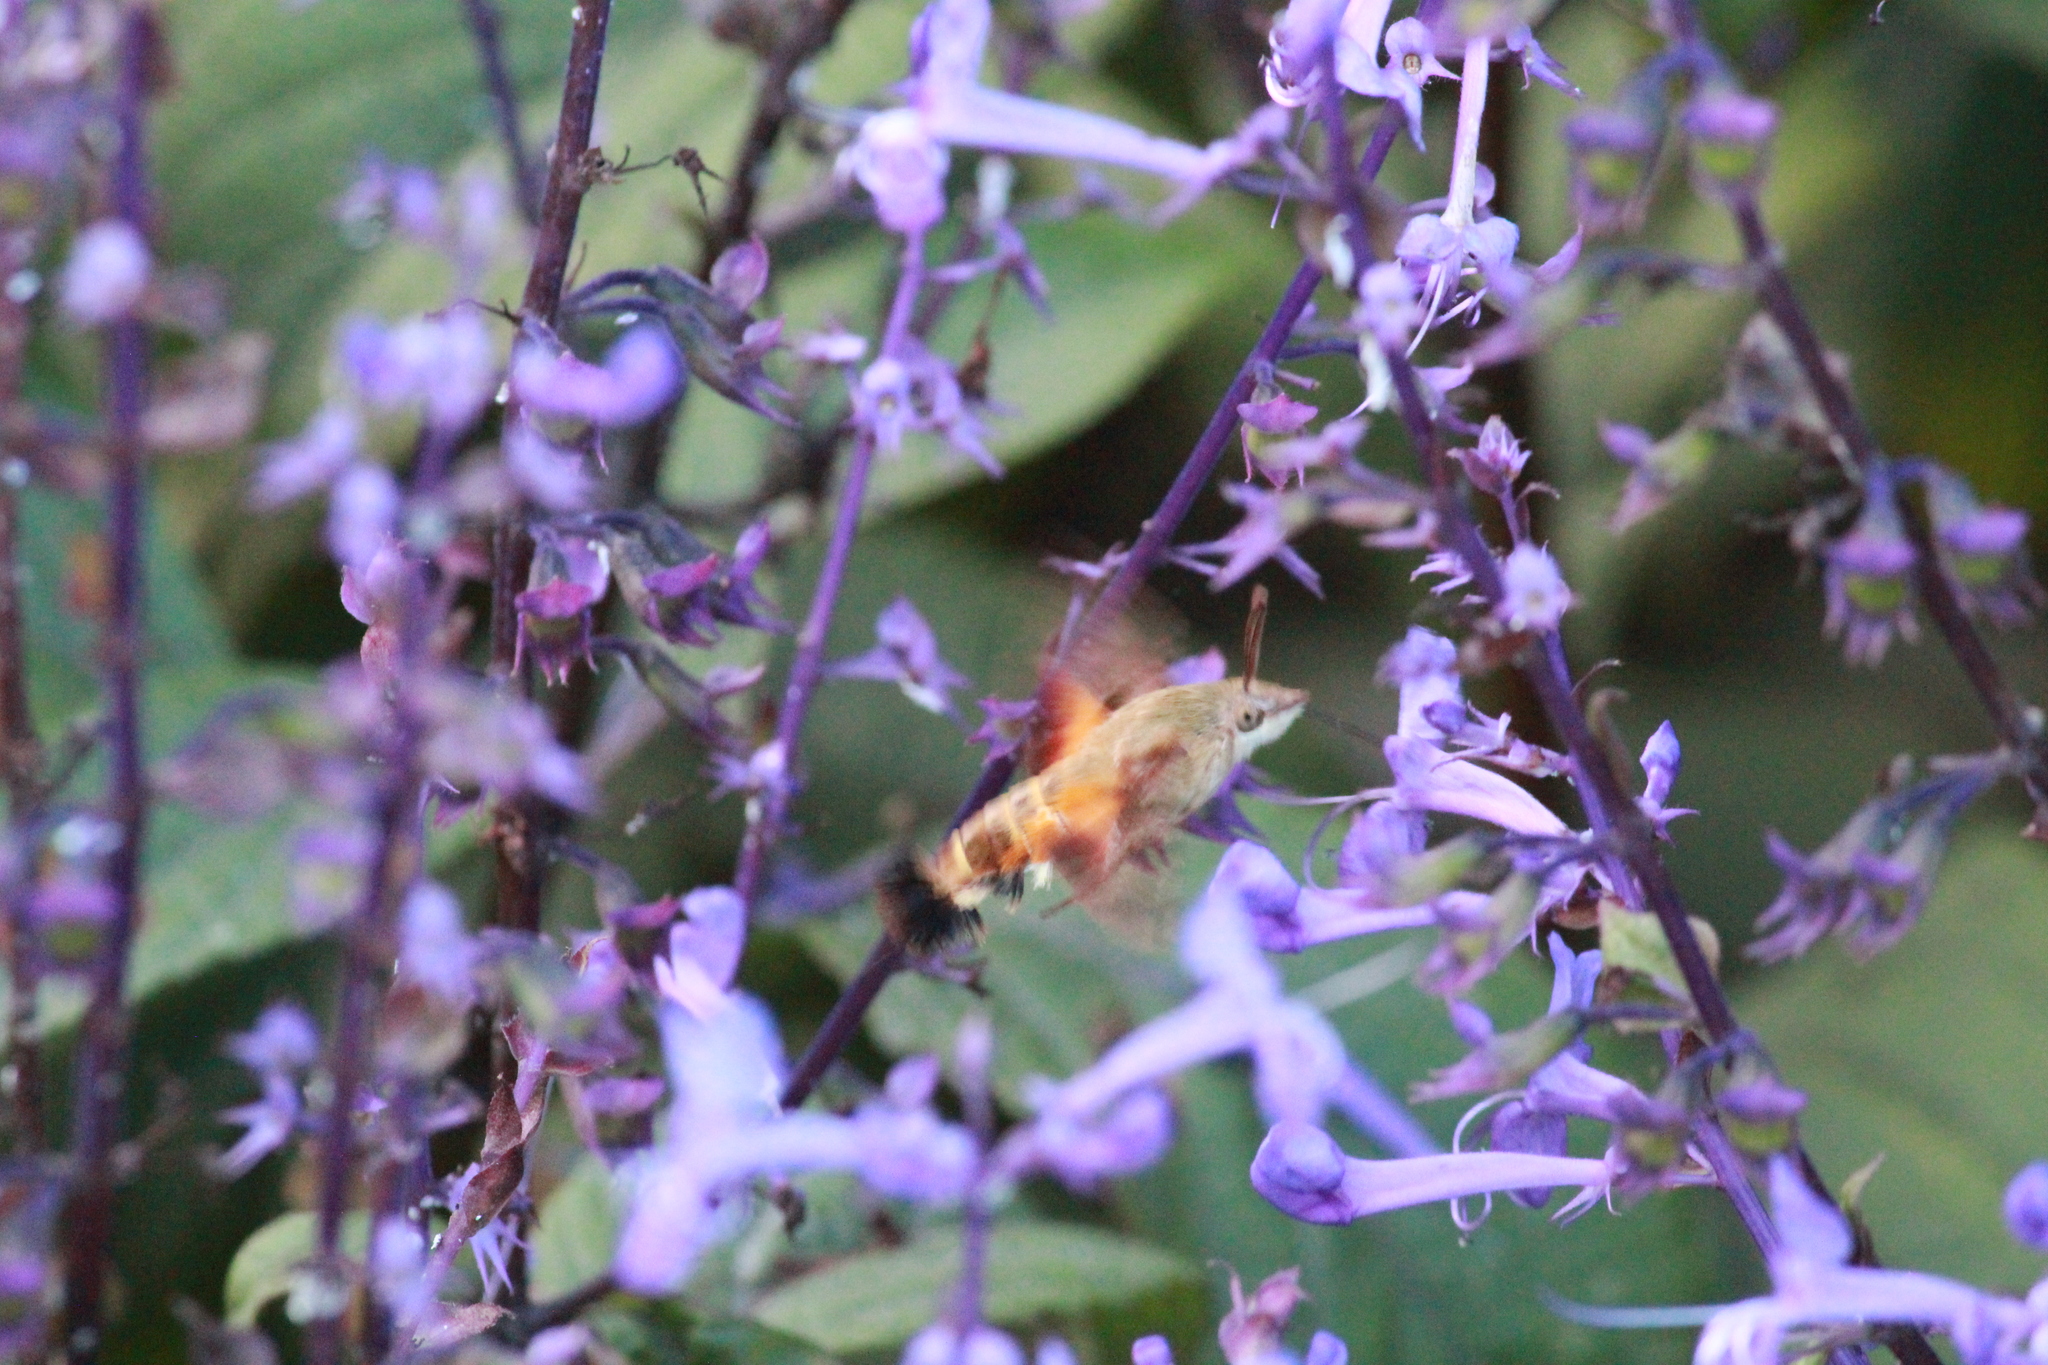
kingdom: Animalia
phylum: Arthropoda
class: Insecta
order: Lepidoptera
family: Sphingidae
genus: Macroglossum
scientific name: Macroglossum trochilus
